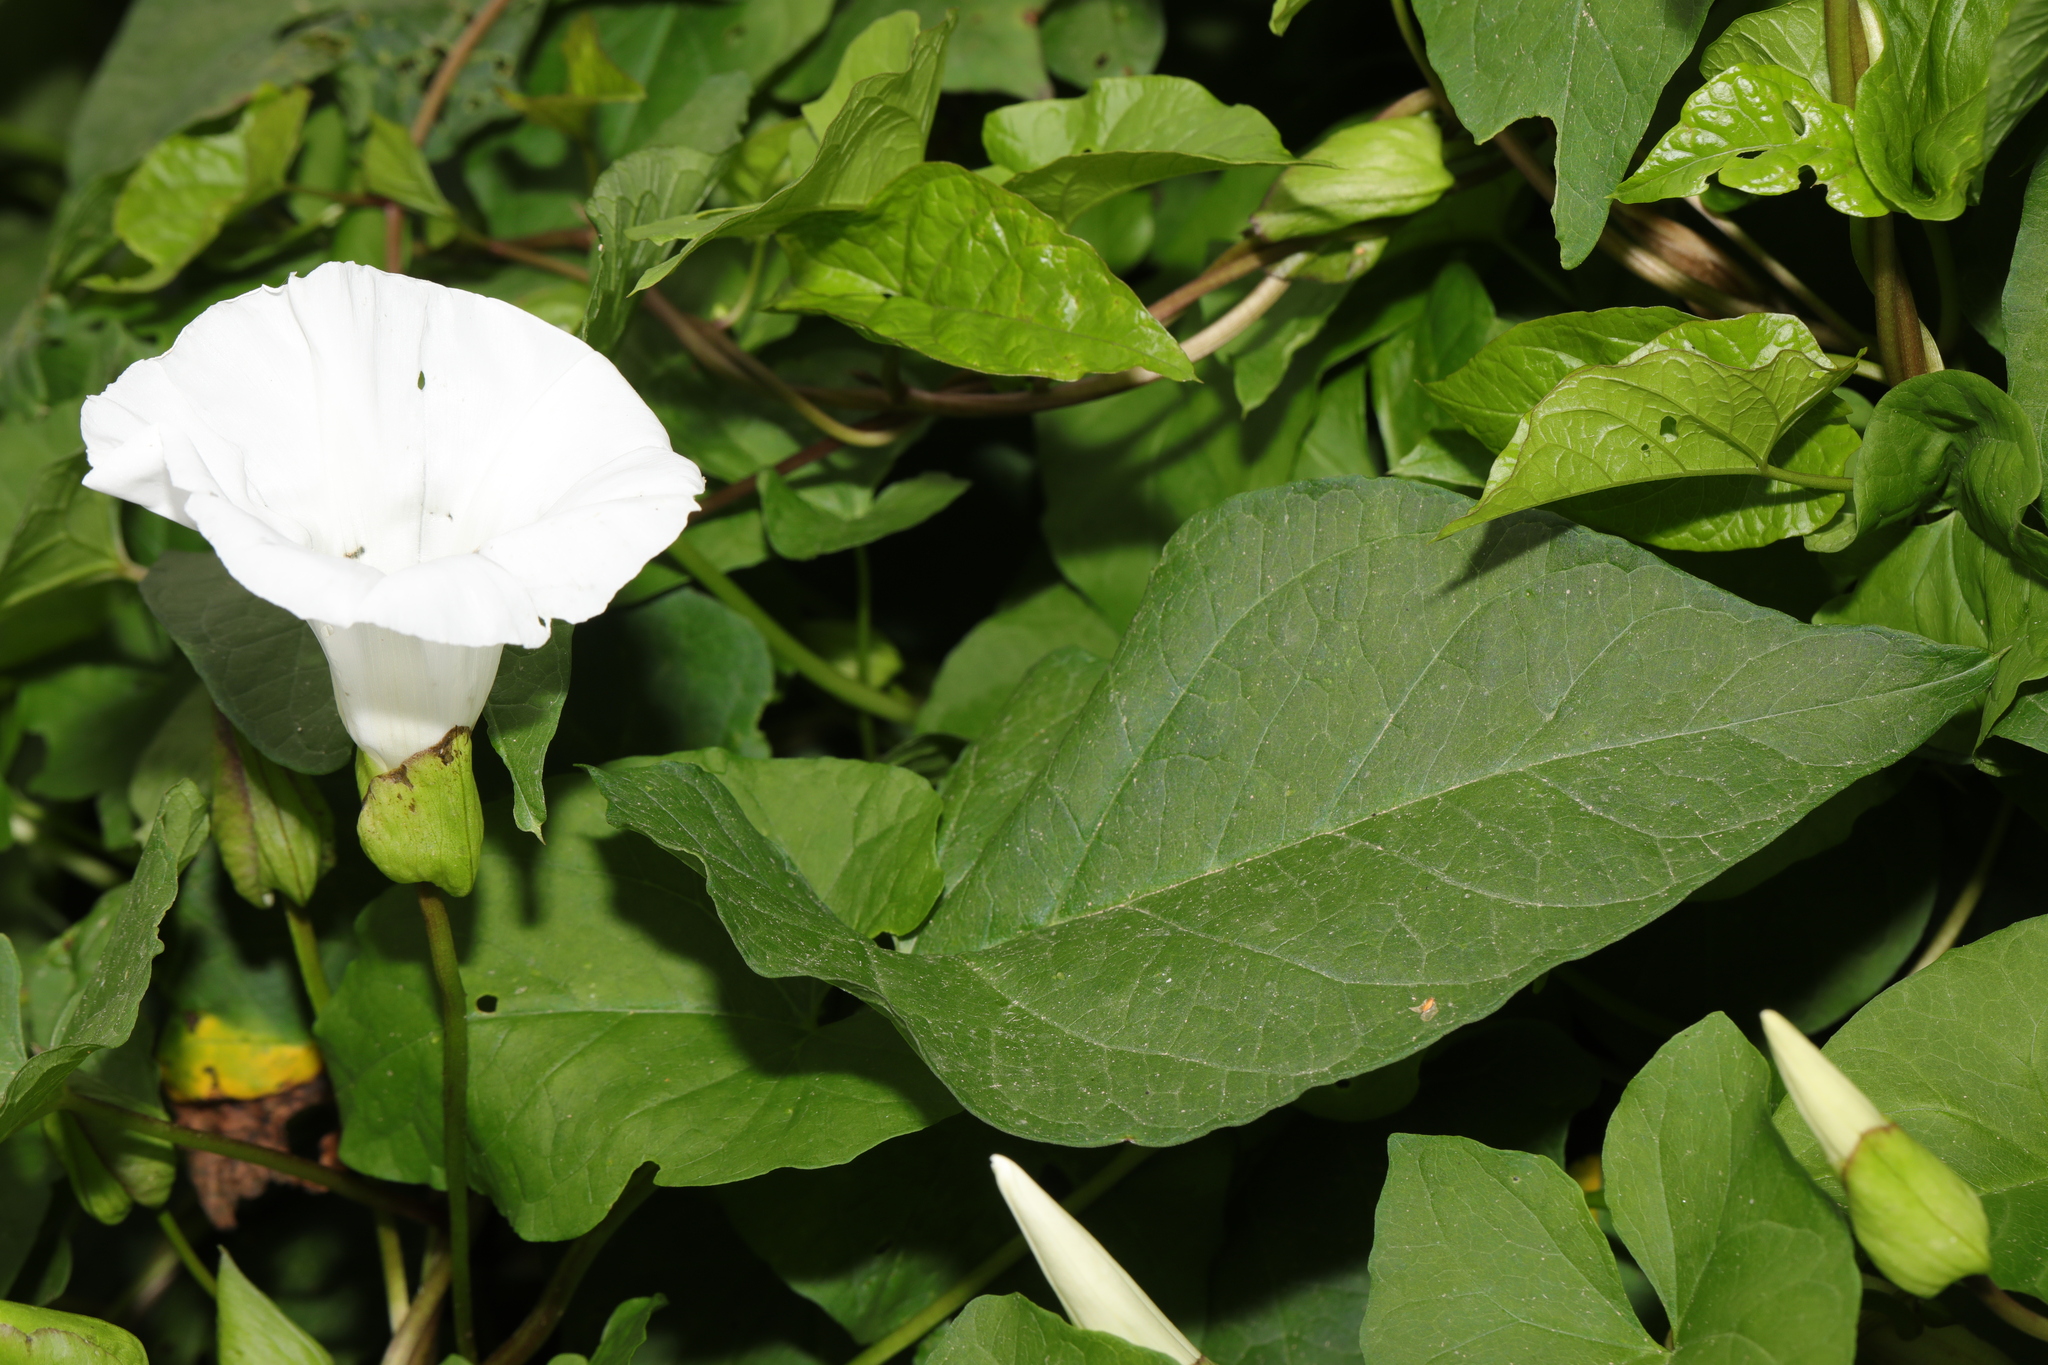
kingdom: Plantae
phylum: Tracheophyta
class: Magnoliopsida
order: Solanales
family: Convolvulaceae
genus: Calystegia
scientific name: Calystegia silvatica
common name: Large bindweed
